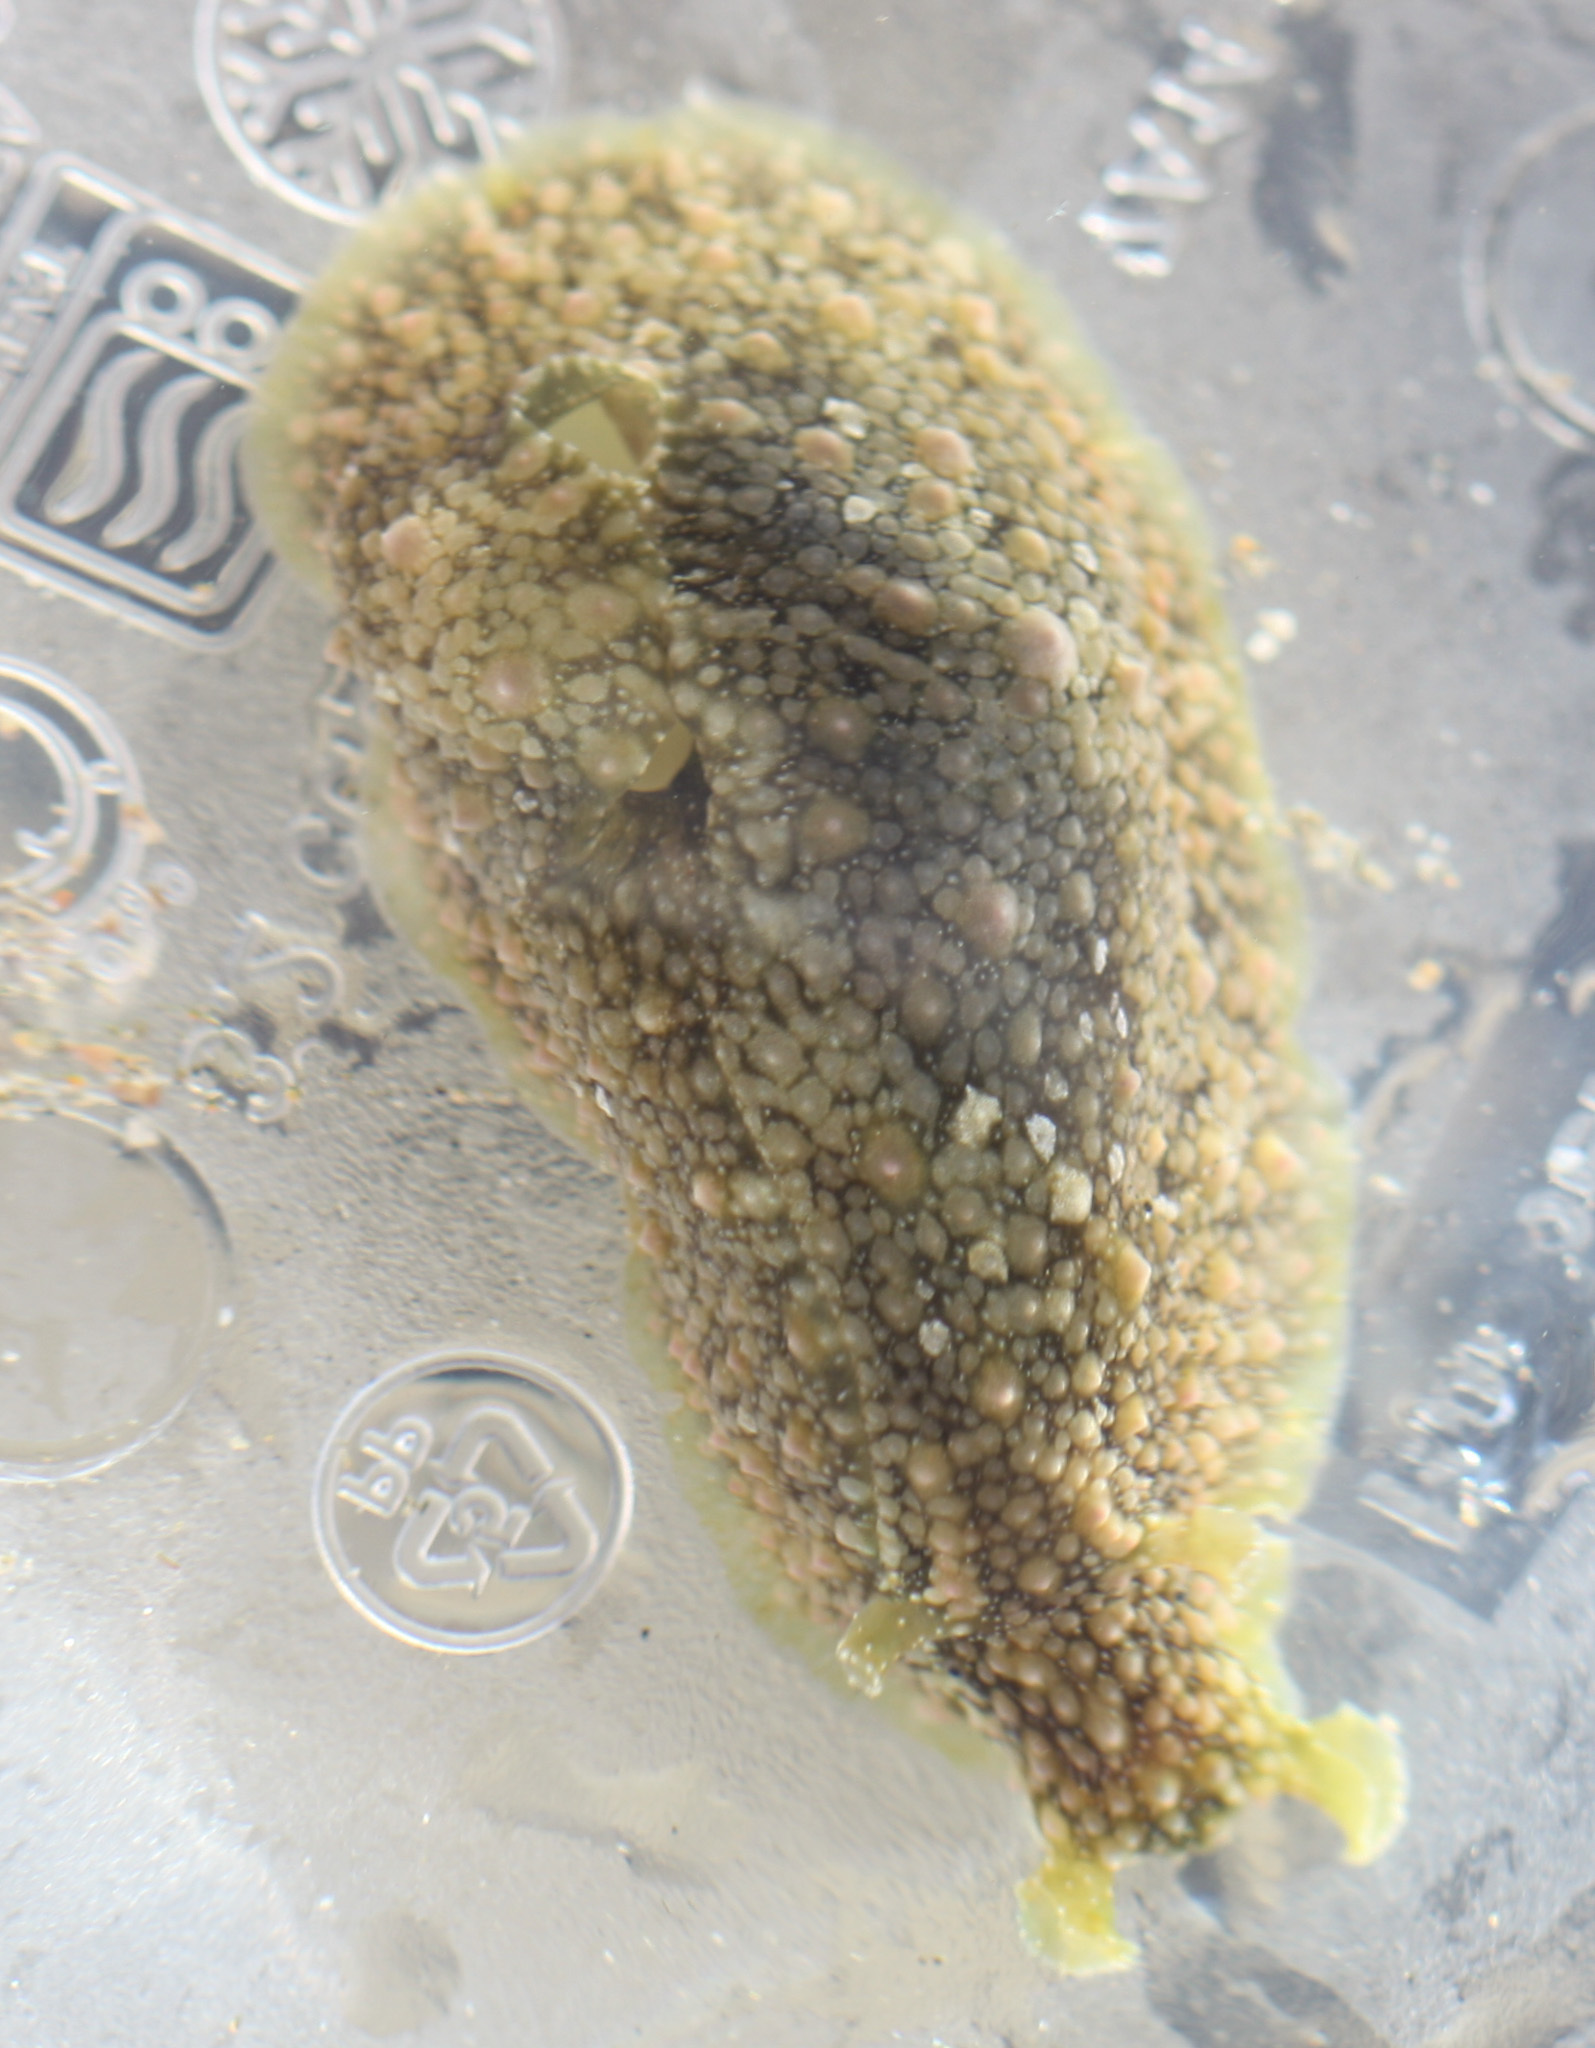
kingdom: Animalia
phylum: Mollusca
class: Gastropoda
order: Aplysiida
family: Aplysiidae
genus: Dolabrifera
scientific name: Dolabrifera nicaraguana
